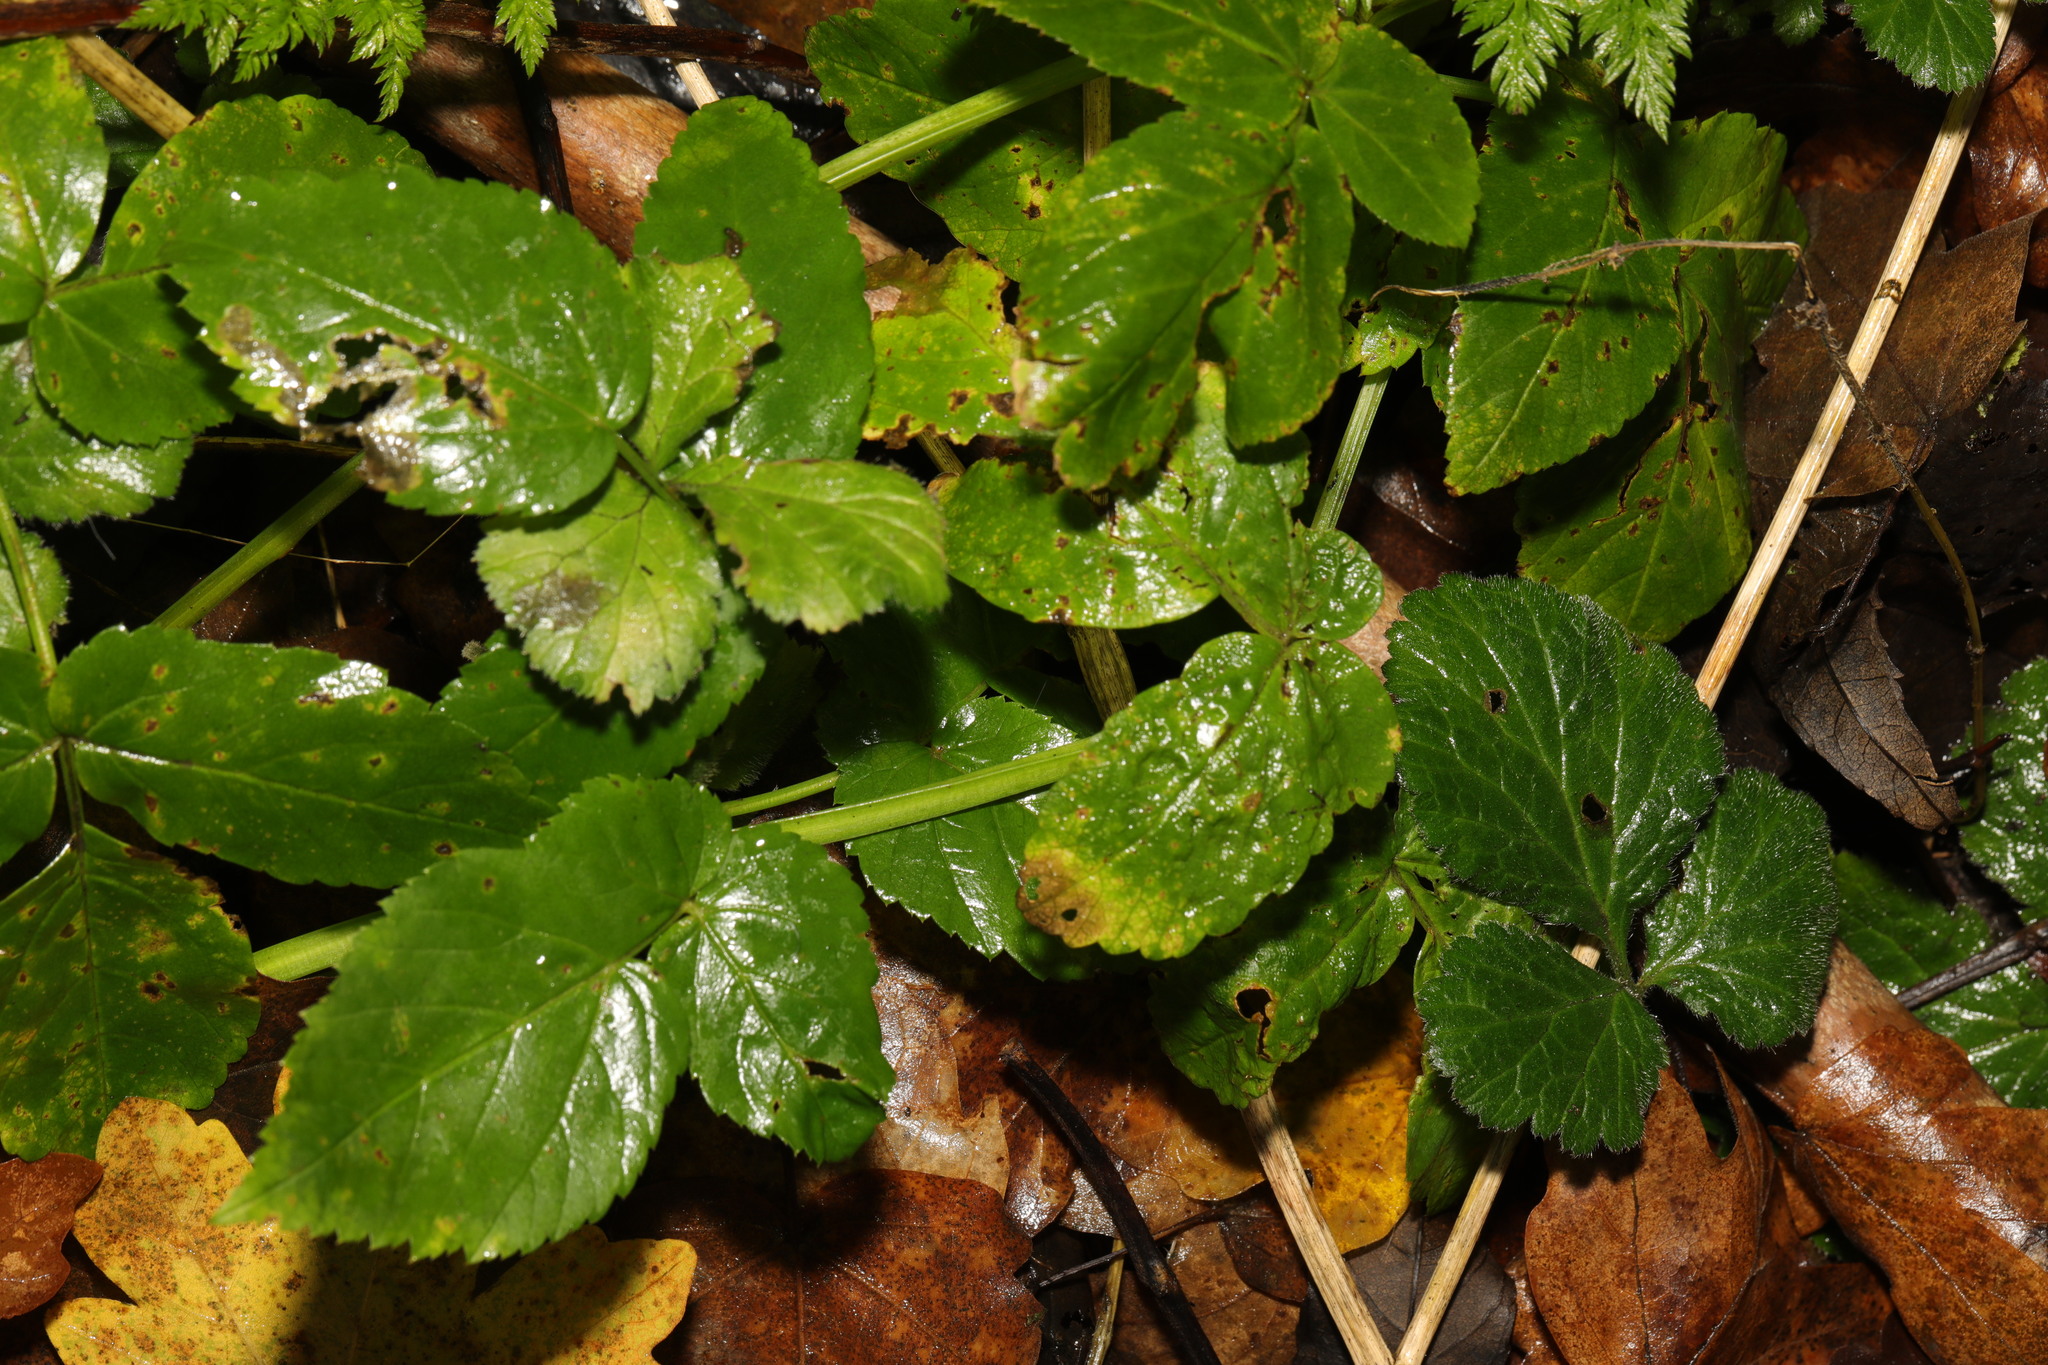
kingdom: Plantae
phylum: Tracheophyta
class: Magnoliopsida
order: Apiales
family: Apiaceae
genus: Aegopodium
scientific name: Aegopodium podagraria
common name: Ground-elder
